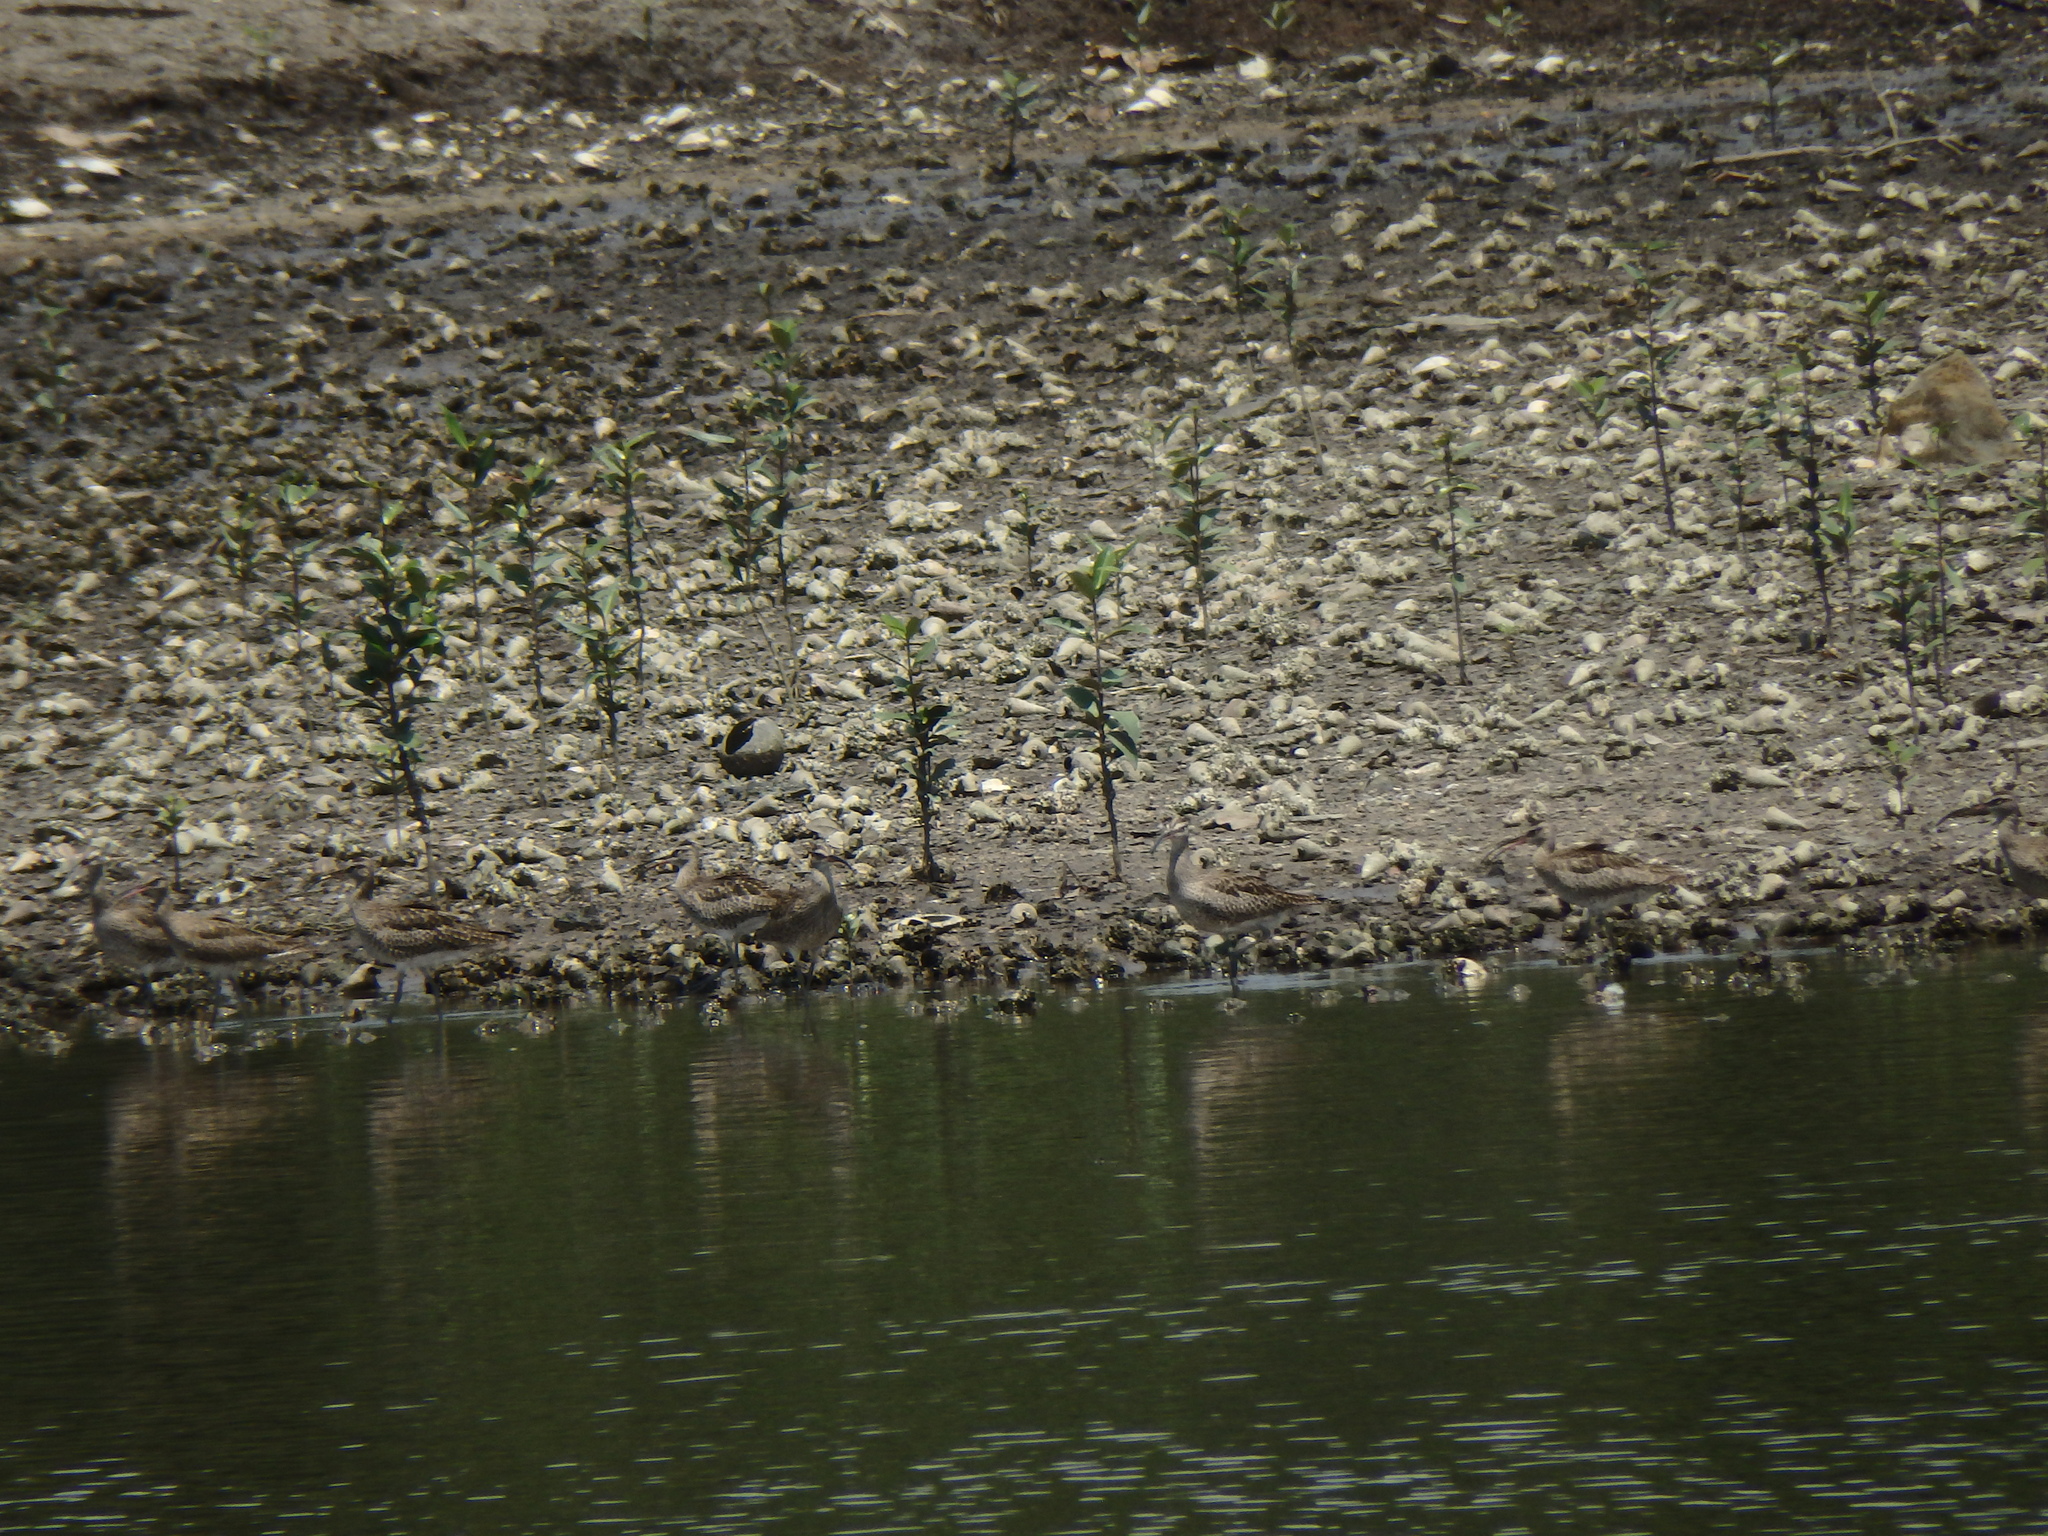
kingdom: Animalia
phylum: Chordata
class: Aves
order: Charadriiformes
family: Scolopacidae
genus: Numenius
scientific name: Numenius phaeopus
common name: Whimbrel
